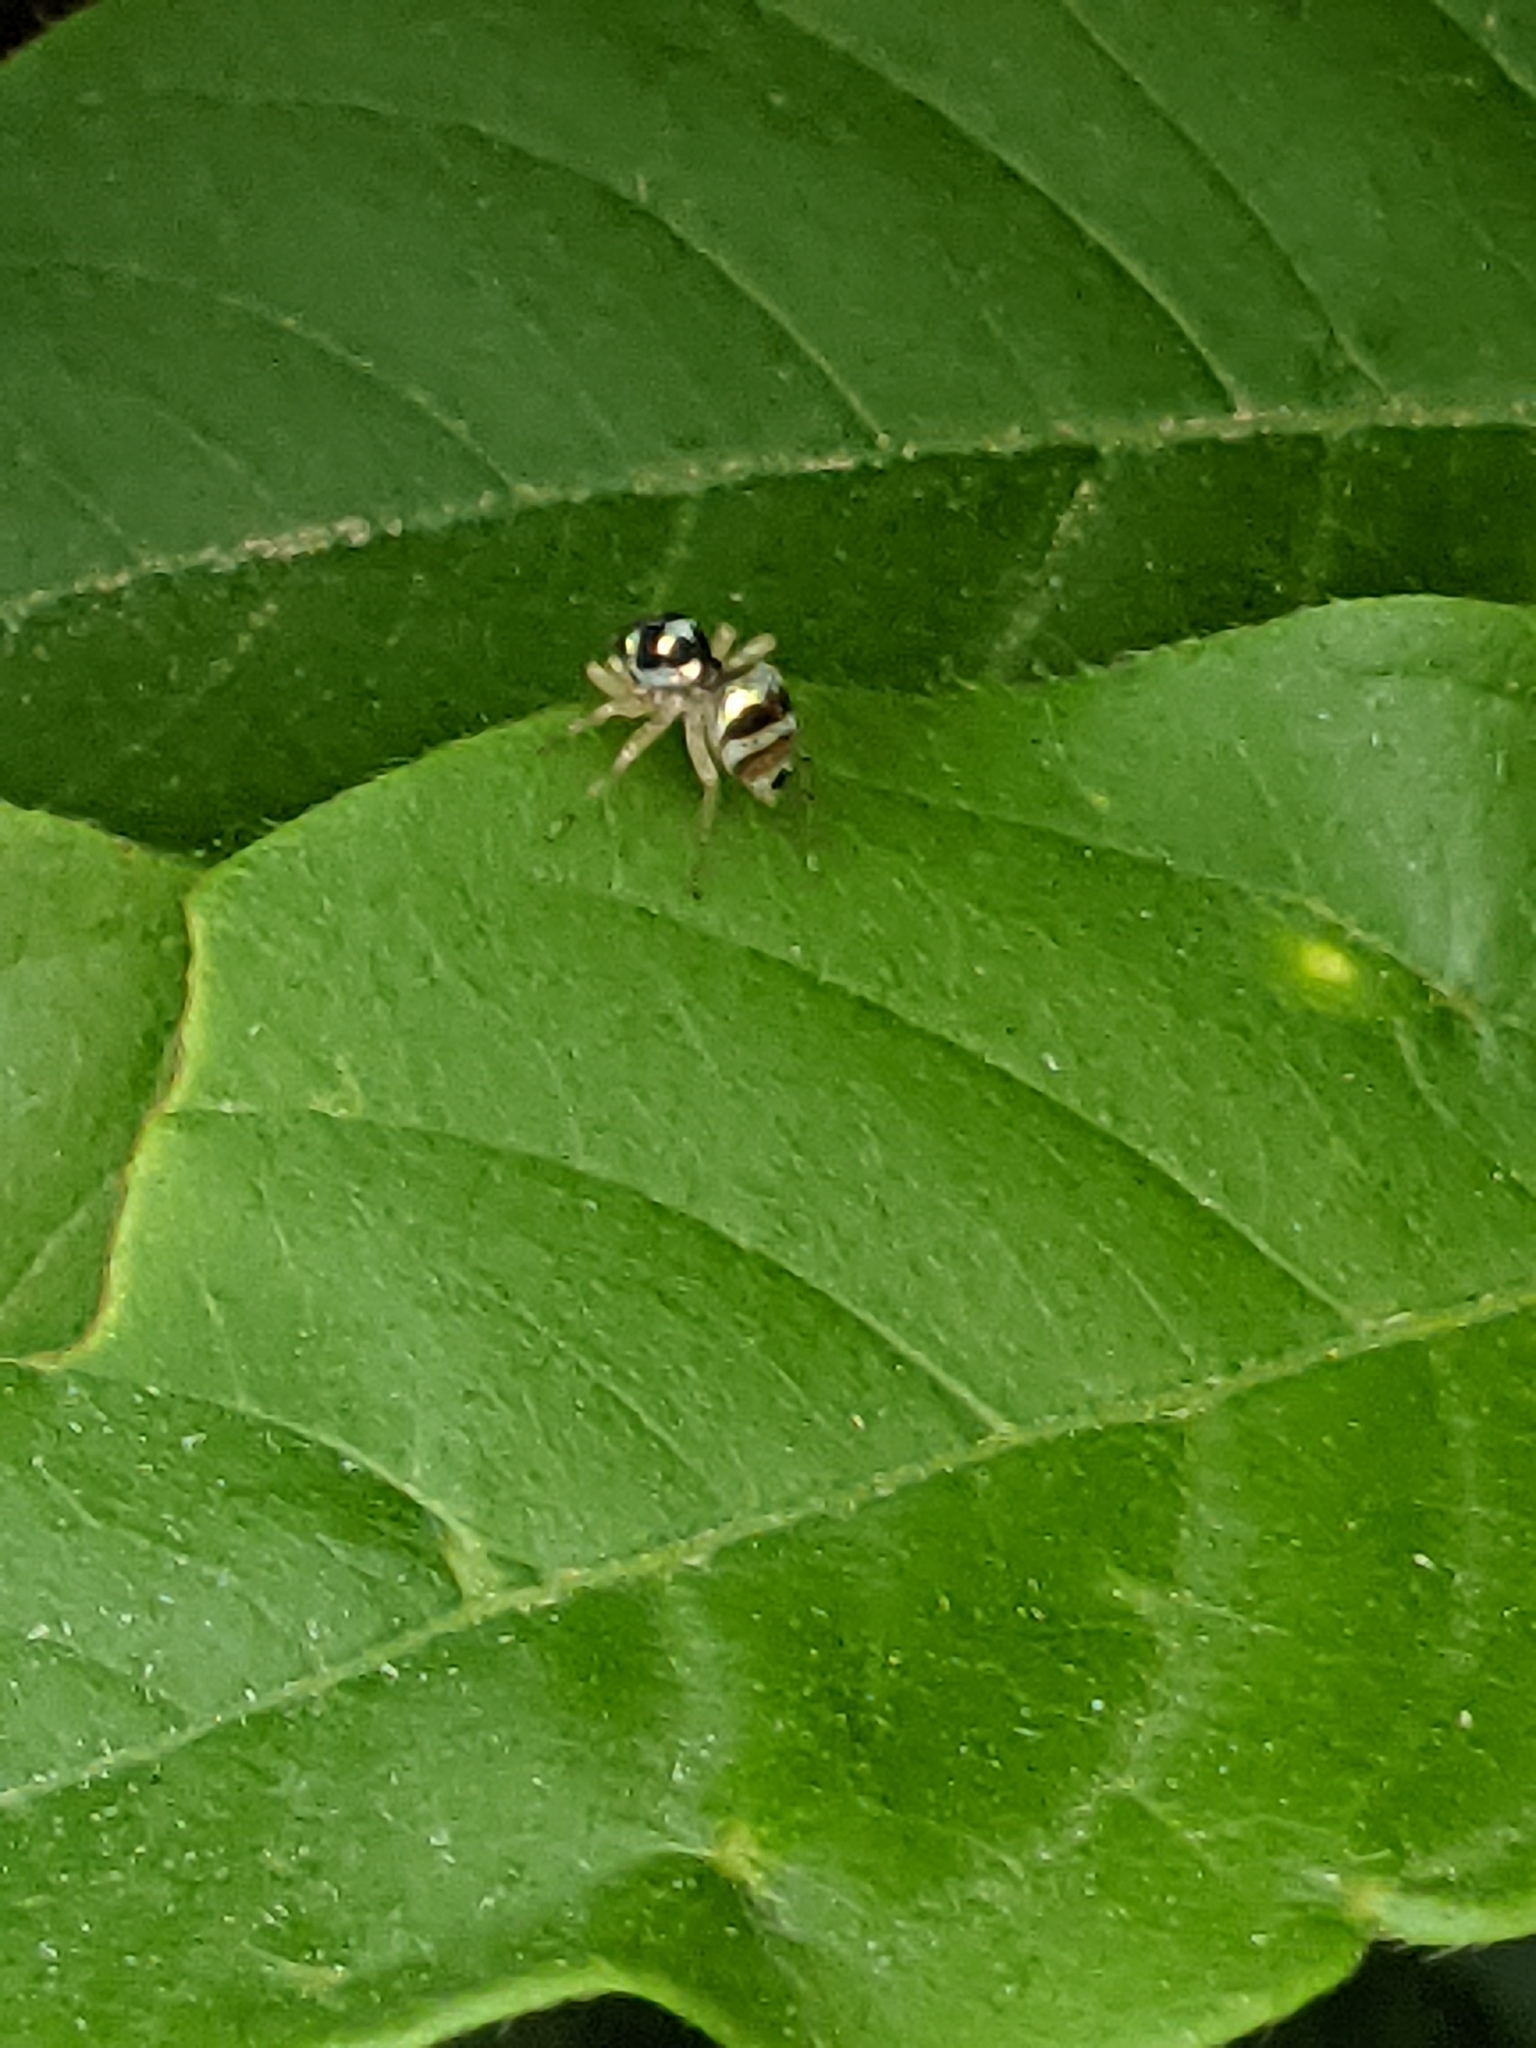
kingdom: Animalia
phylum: Arthropoda
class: Arachnida
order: Araneae
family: Salticidae
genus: Phintella
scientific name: Phintella vittata
